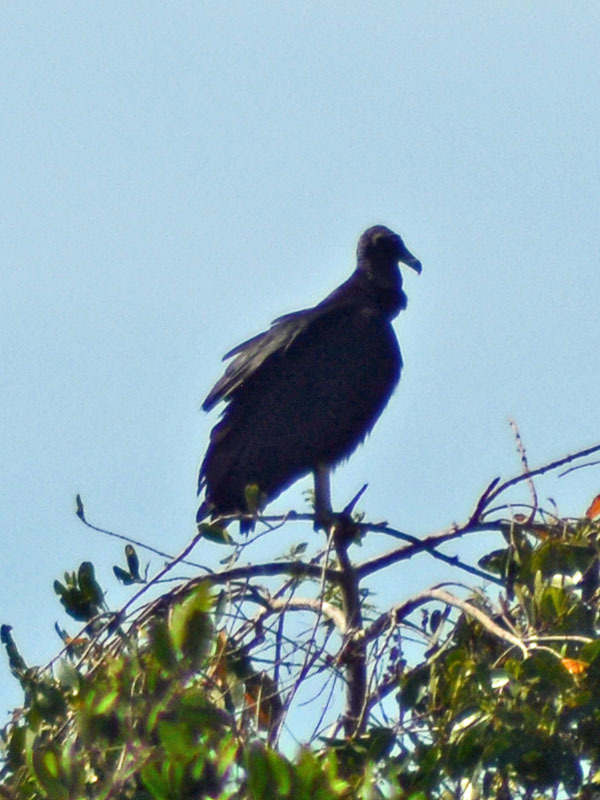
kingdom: Animalia
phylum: Chordata
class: Aves
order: Accipitriformes
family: Cathartidae
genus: Coragyps
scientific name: Coragyps atratus
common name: Black vulture
